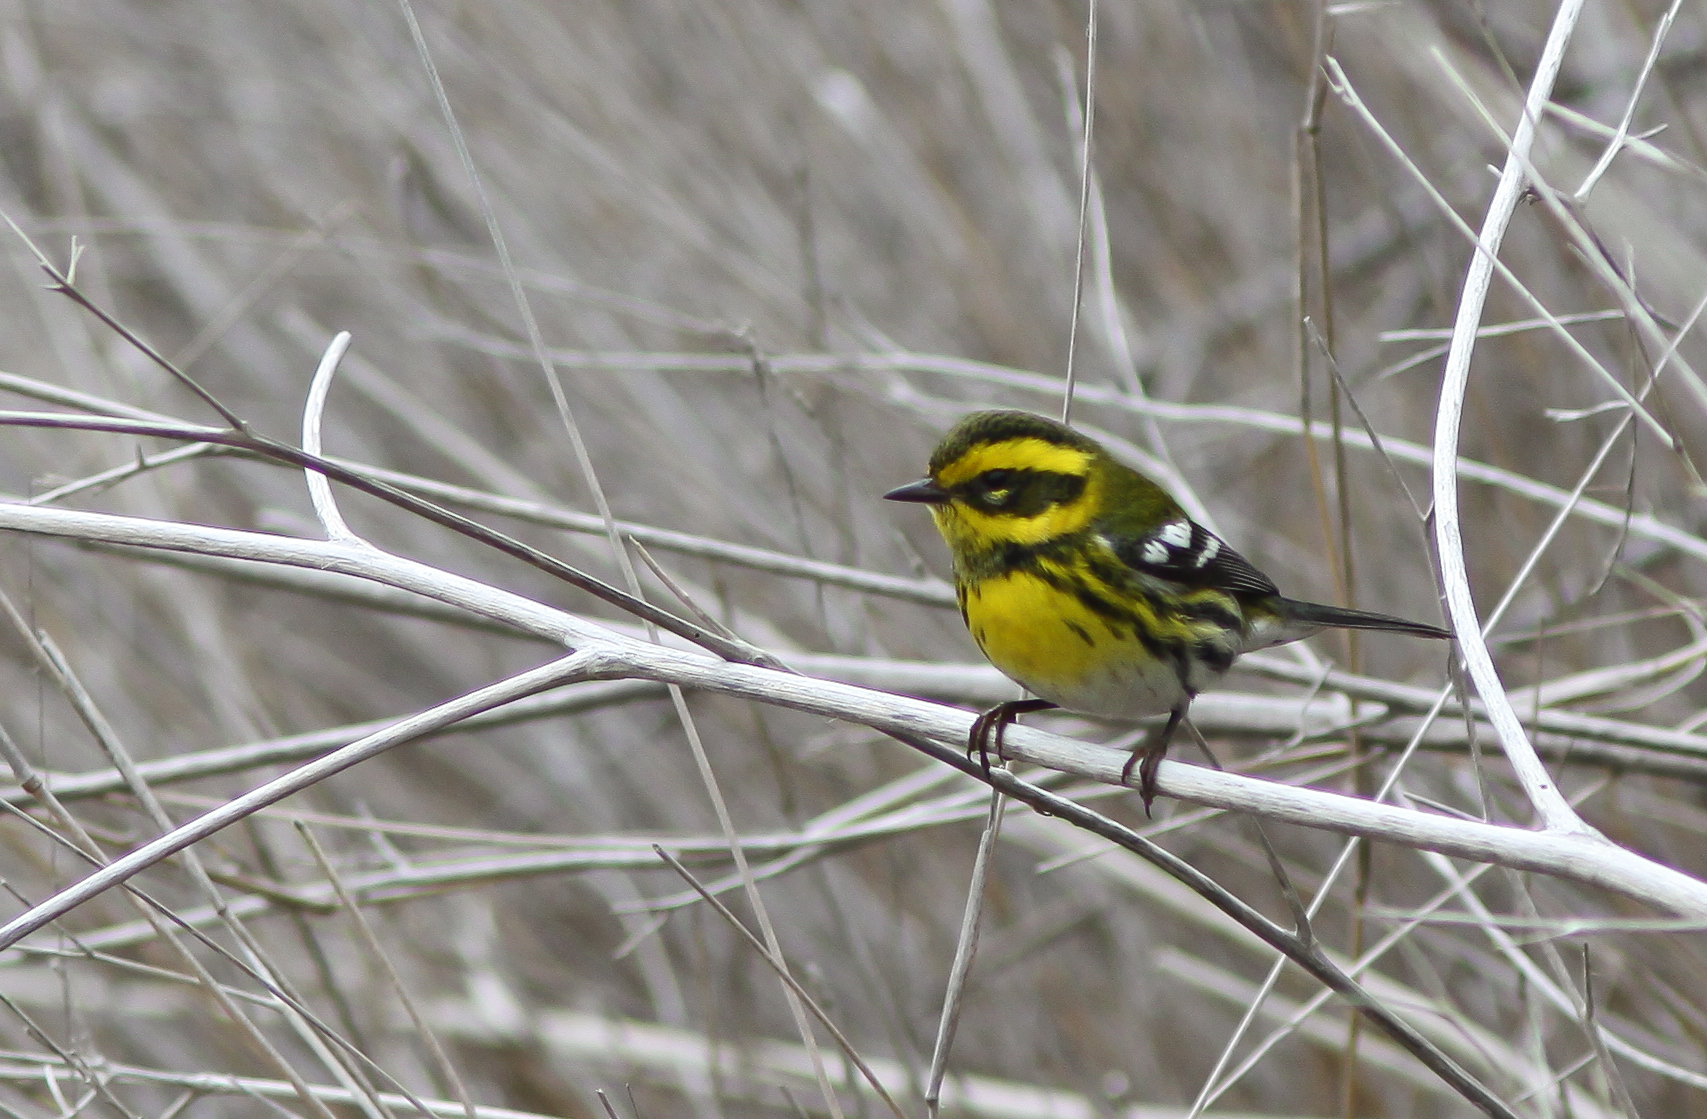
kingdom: Animalia
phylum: Chordata
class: Aves
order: Passeriformes
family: Parulidae
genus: Setophaga
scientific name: Setophaga townsendi
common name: Townsend's warbler
